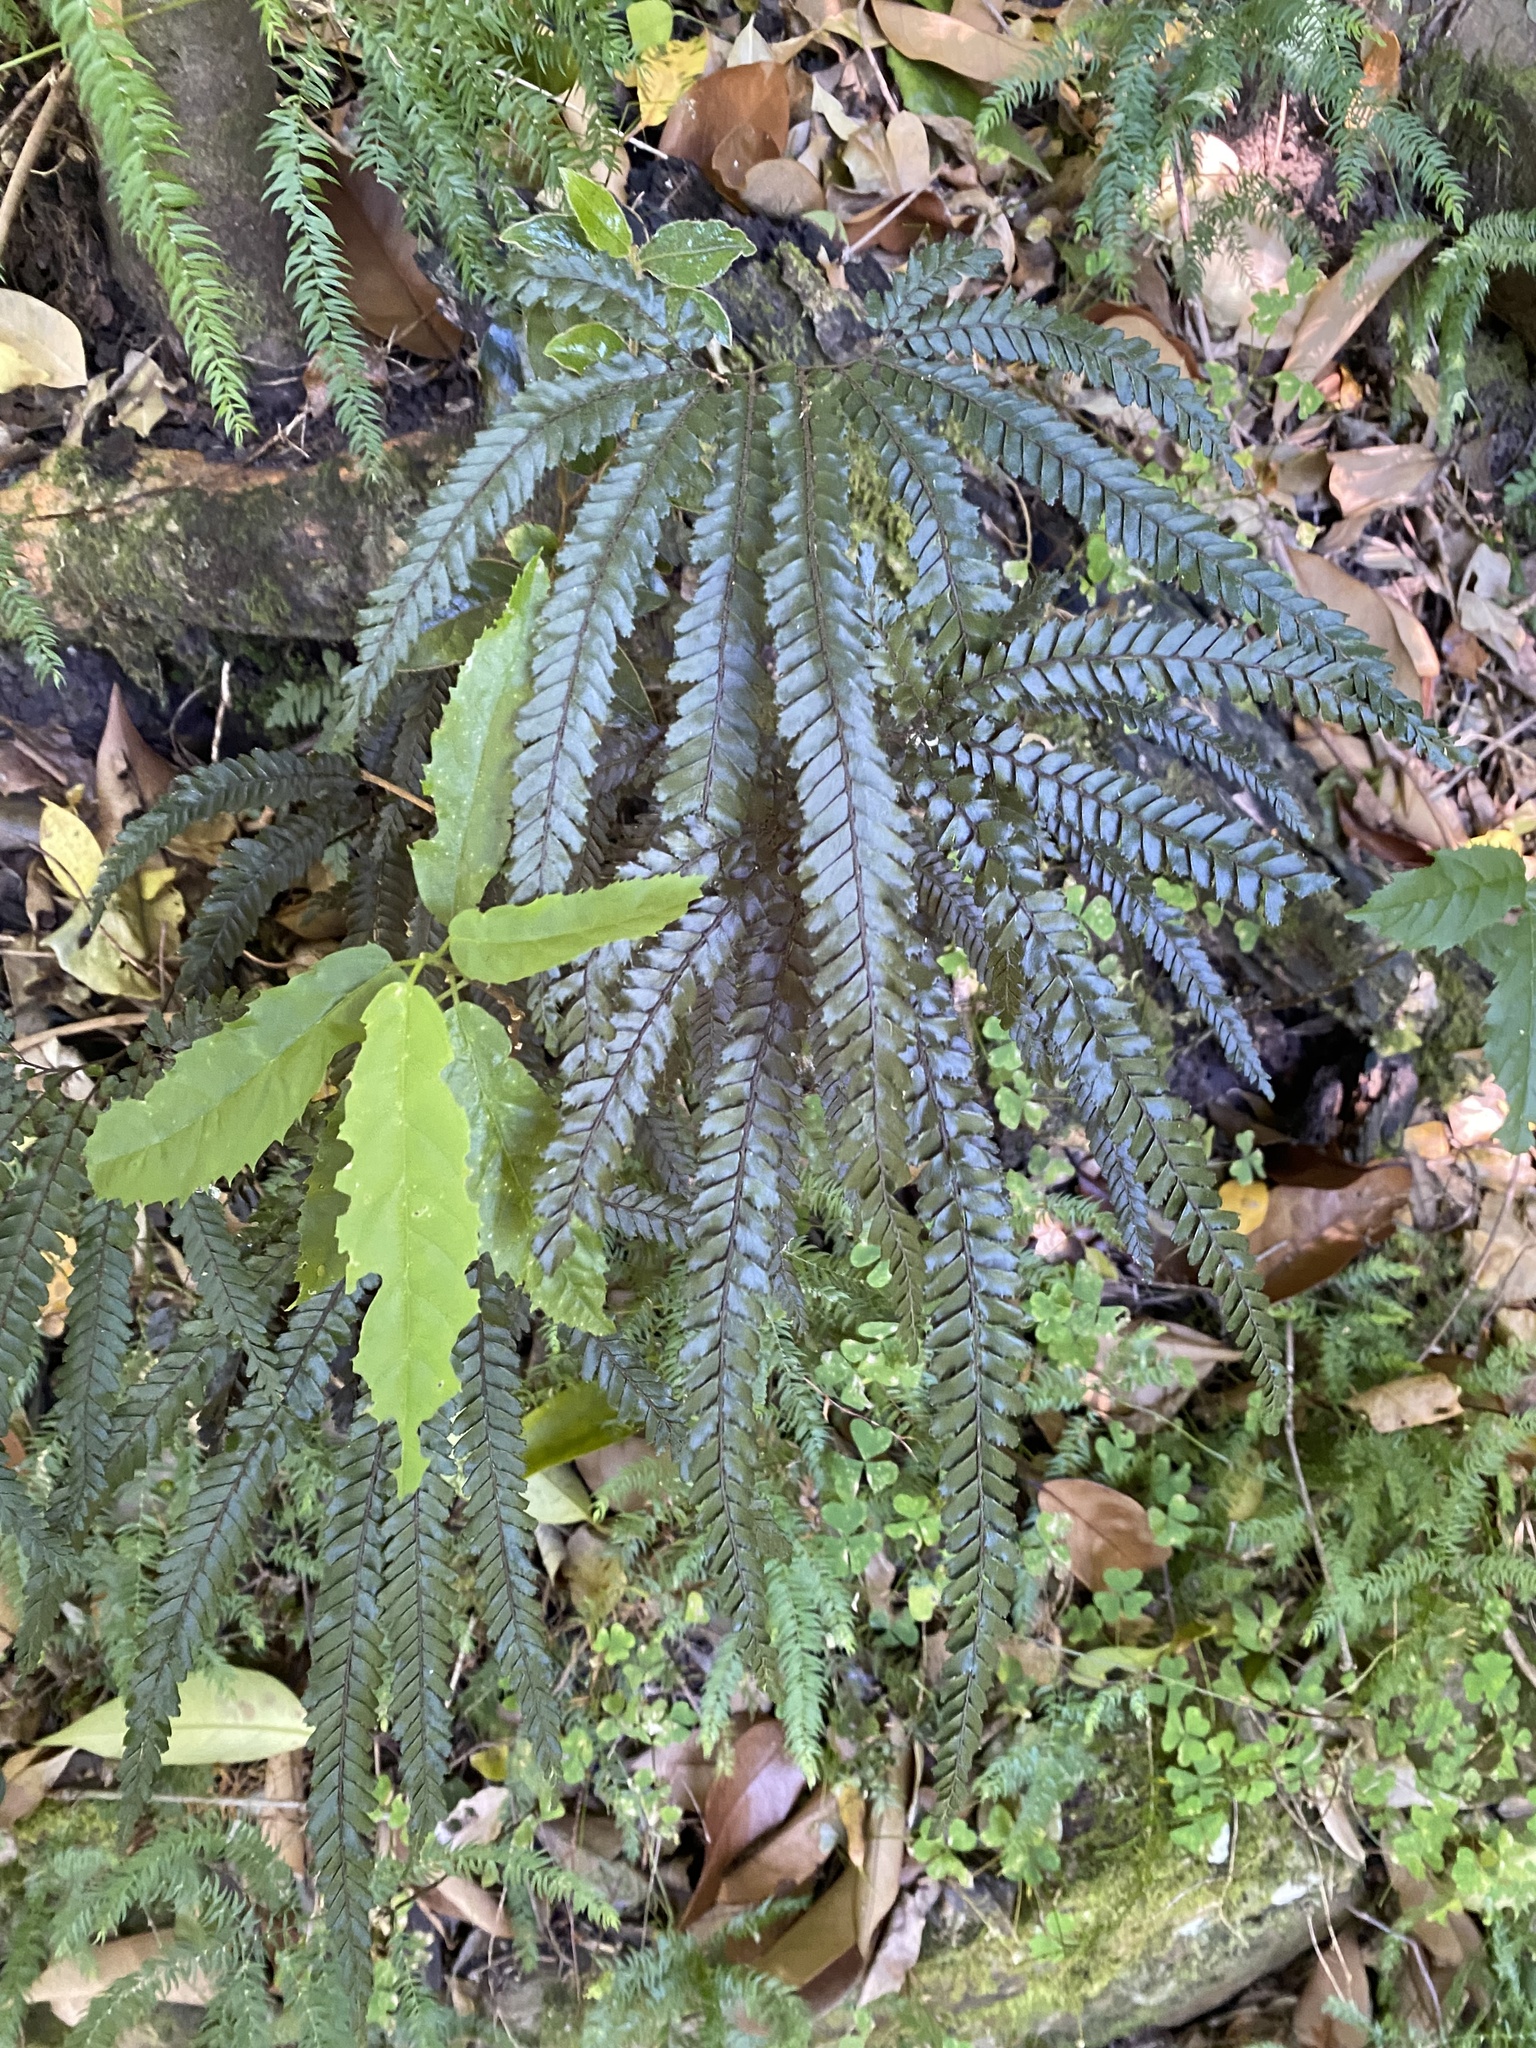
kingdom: Plantae
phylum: Tracheophyta
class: Polypodiopsida
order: Polypodiales
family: Pteridaceae
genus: Adiantum
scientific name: Adiantum hispidulum
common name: Rough maidenhair
